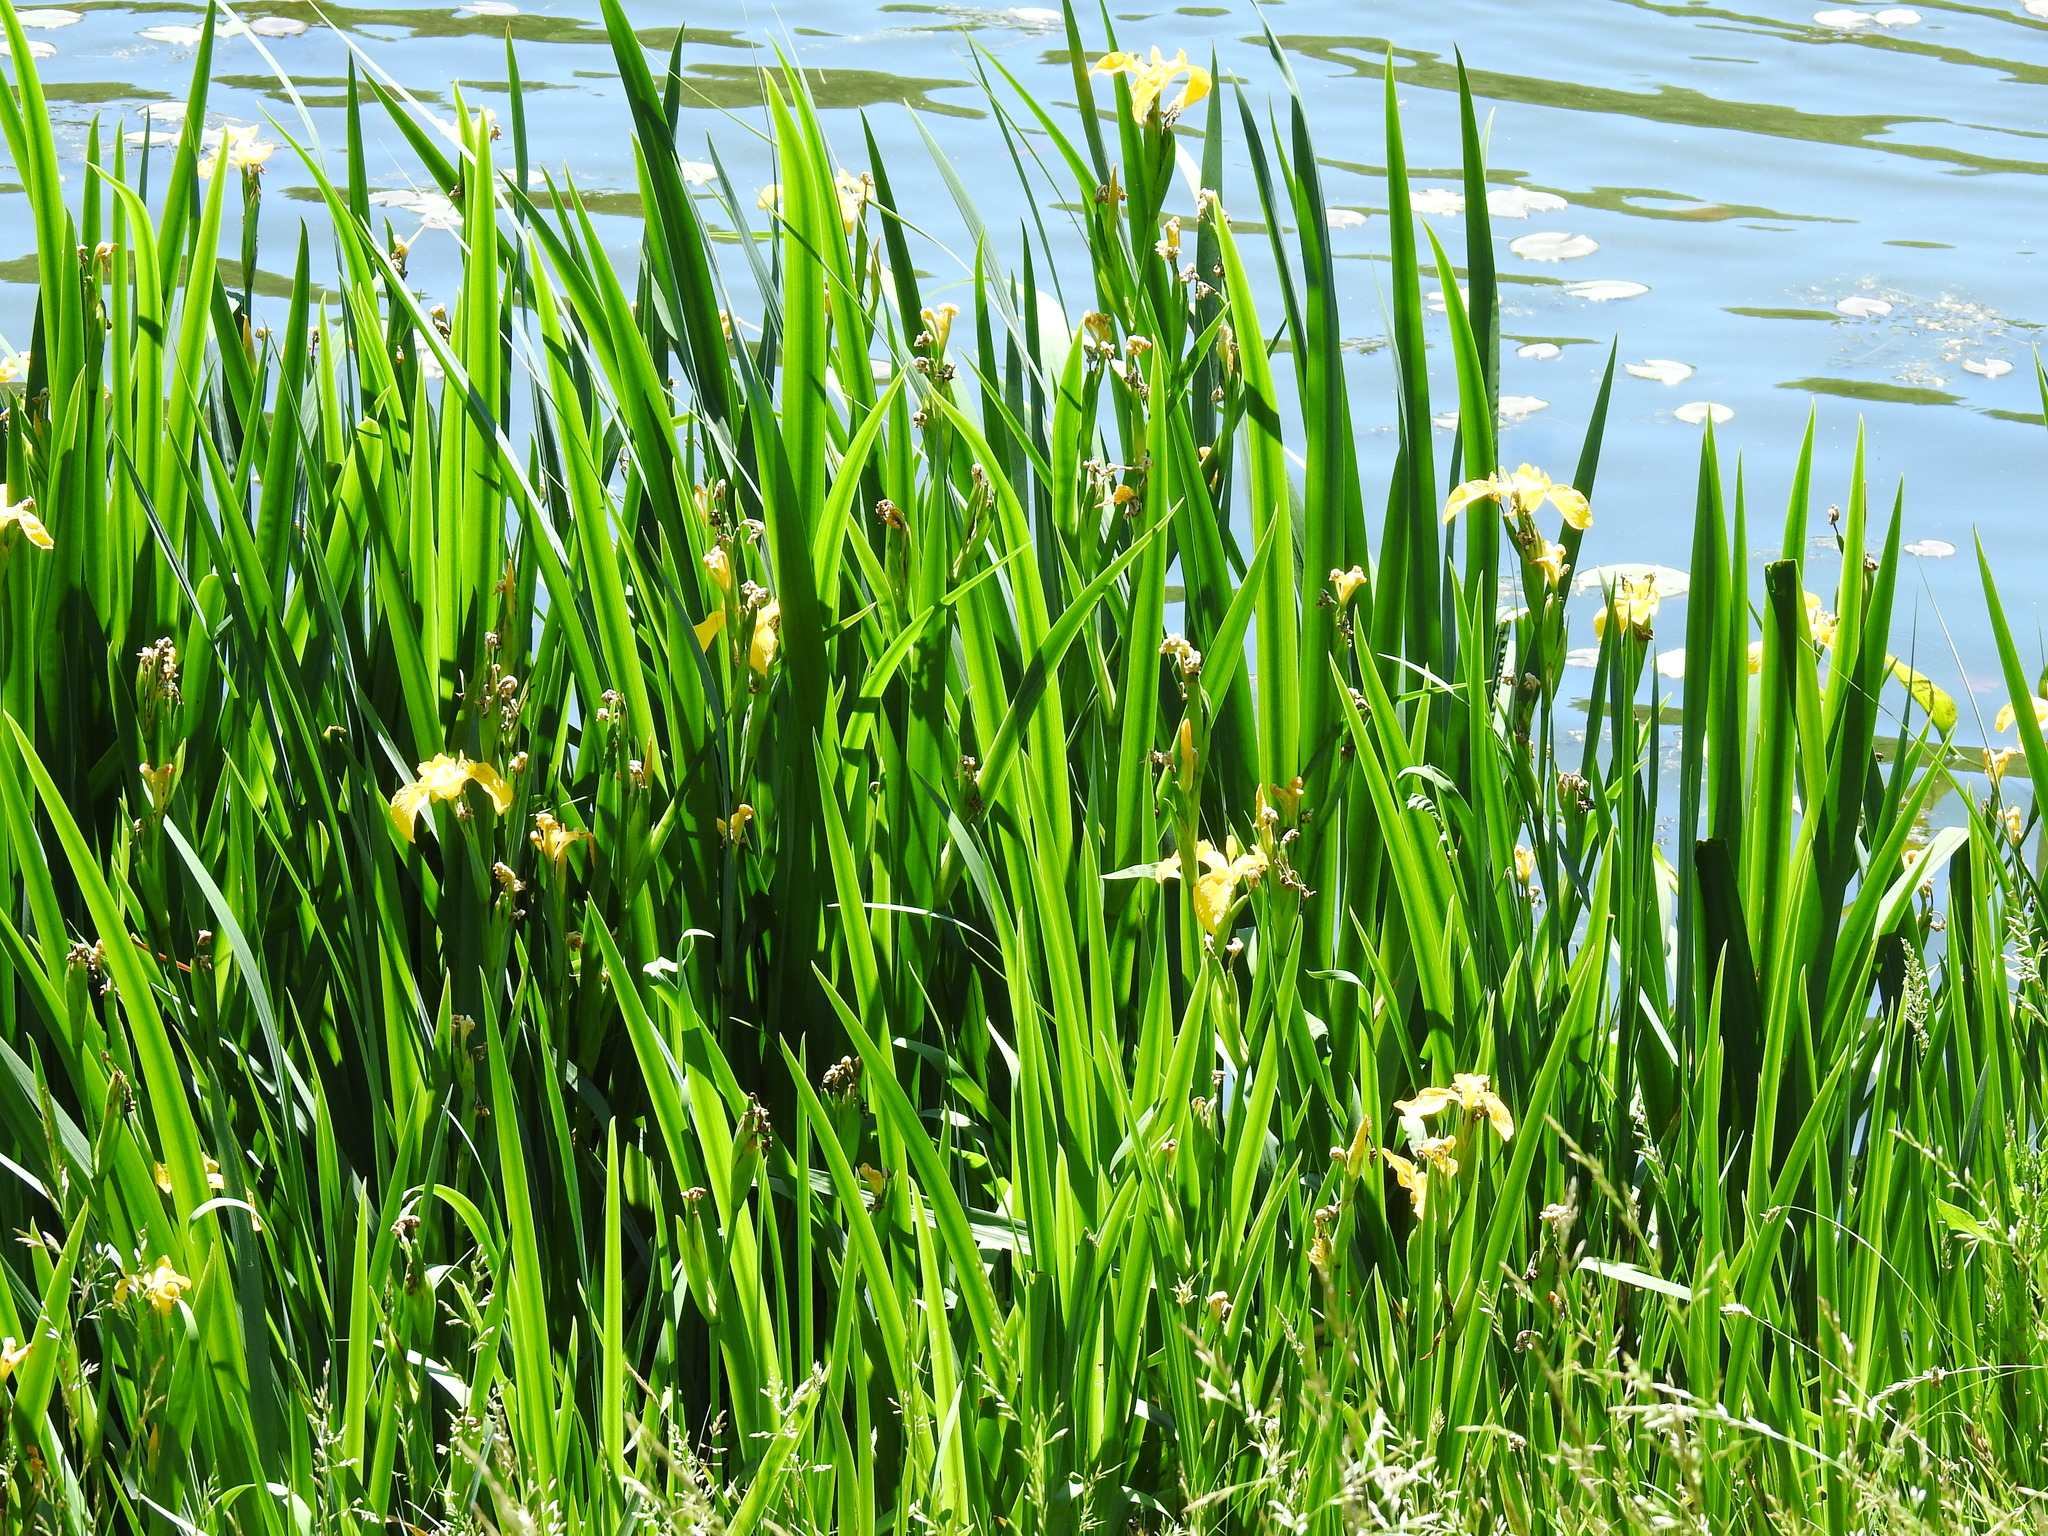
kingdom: Plantae
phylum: Tracheophyta
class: Liliopsida
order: Asparagales
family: Iridaceae
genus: Iris
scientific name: Iris pseudacorus
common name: Yellow flag
